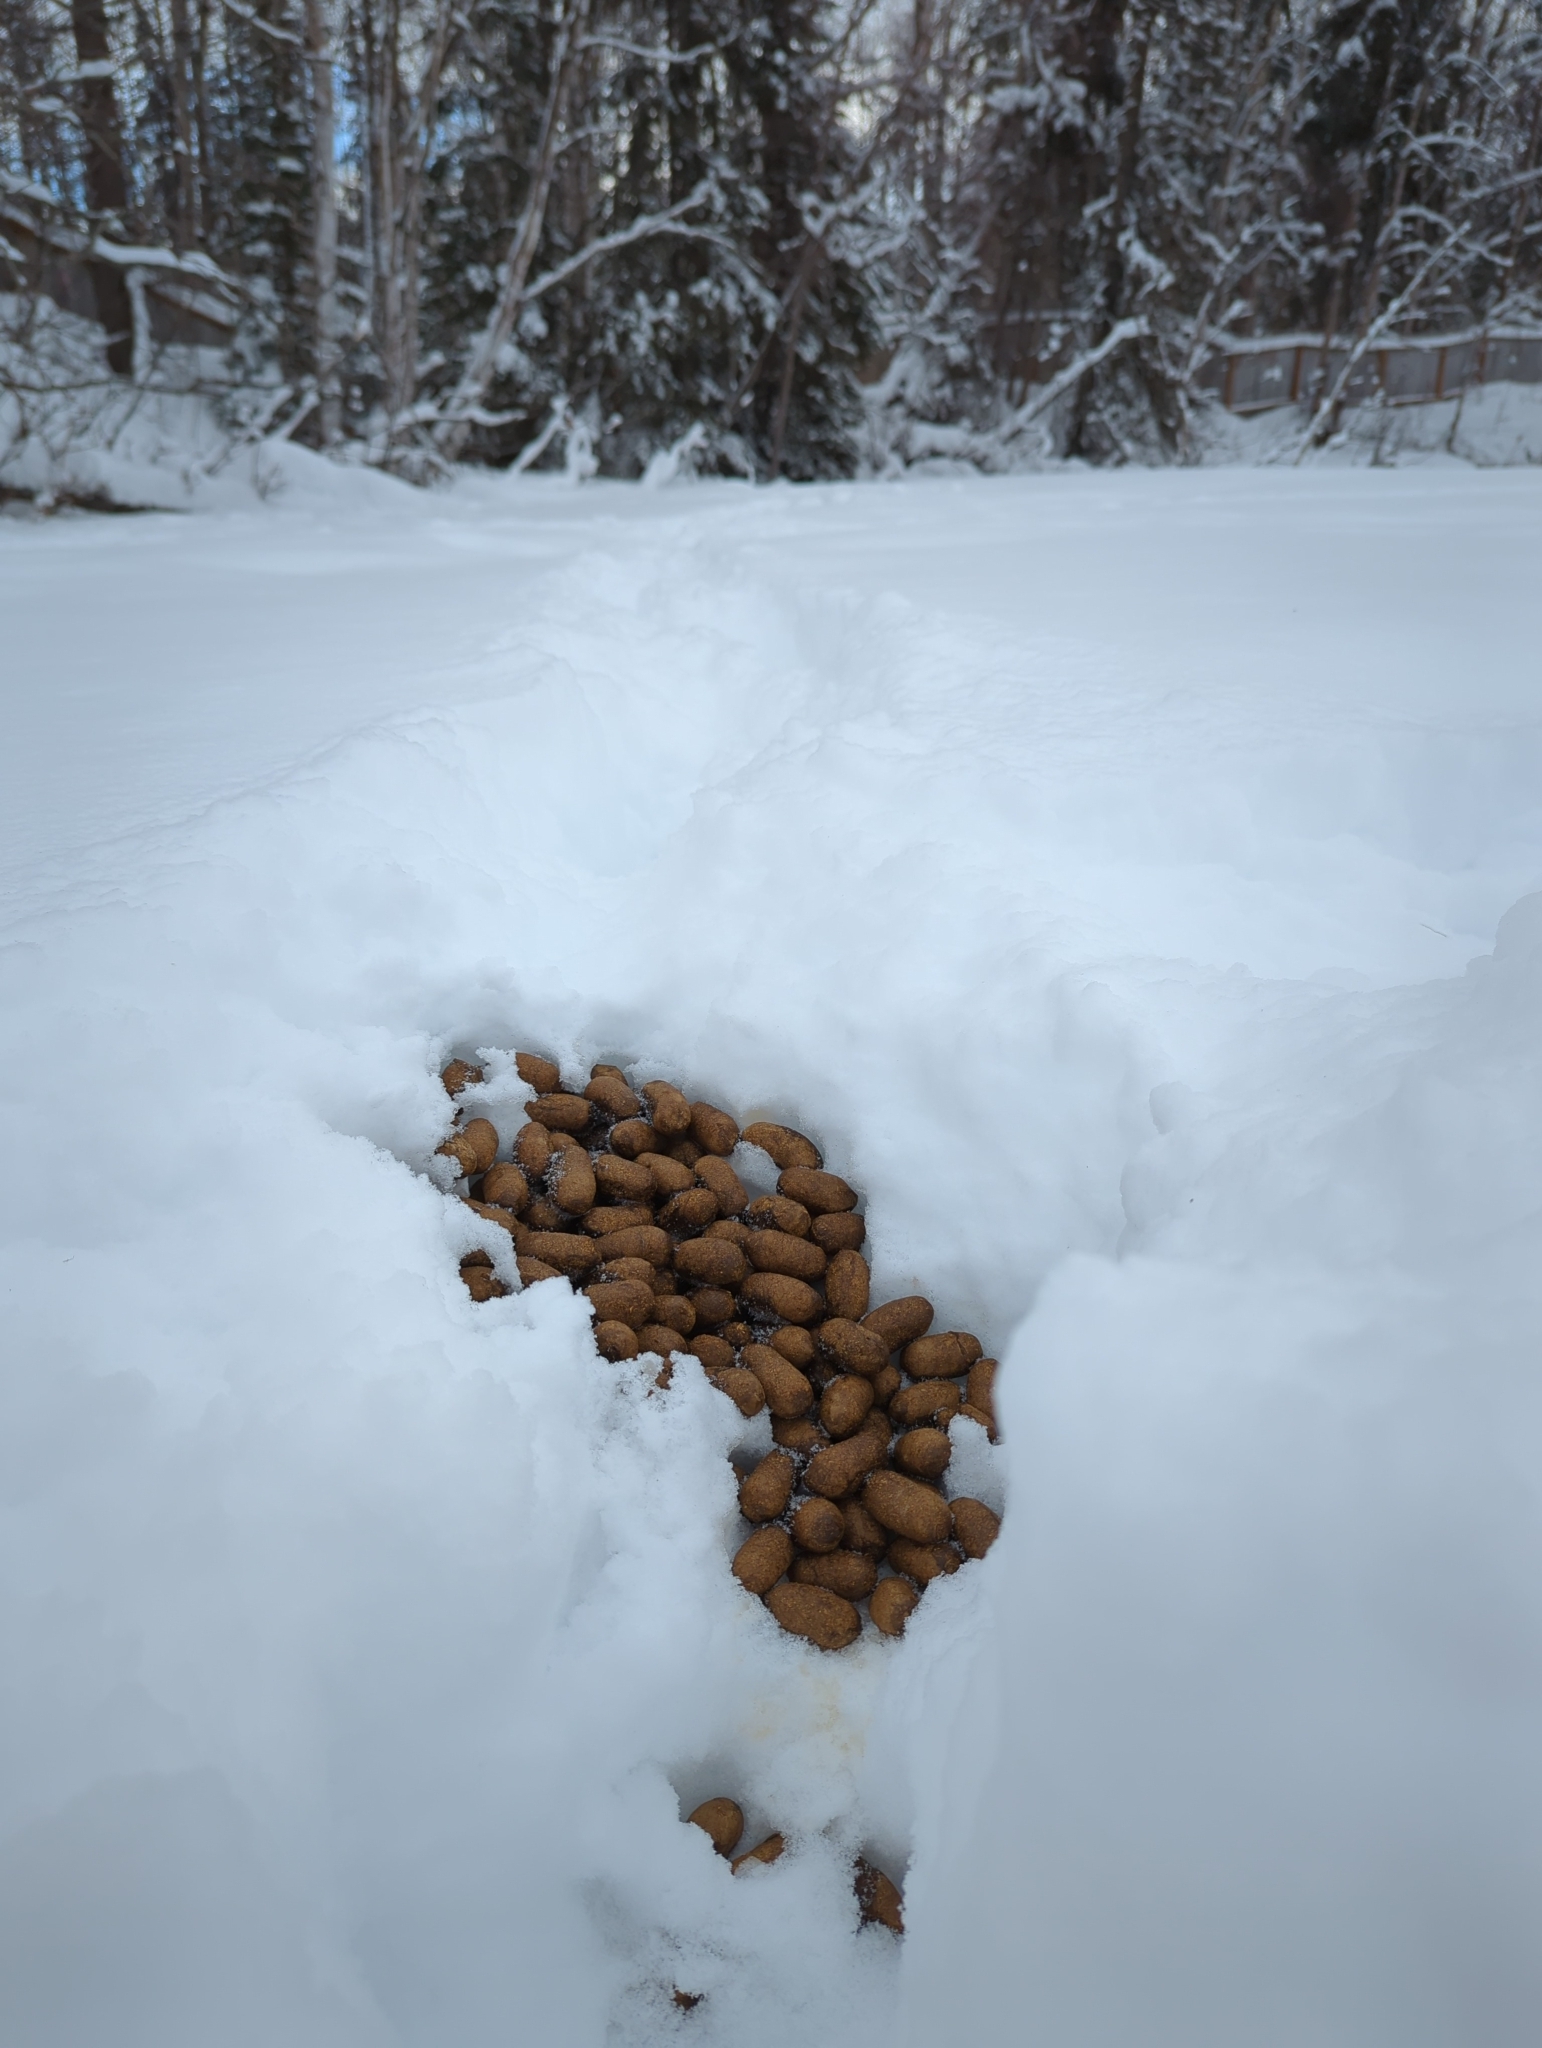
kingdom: Animalia
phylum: Chordata
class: Mammalia
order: Artiodactyla
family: Cervidae
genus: Alces
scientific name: Alces alces
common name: Moose
